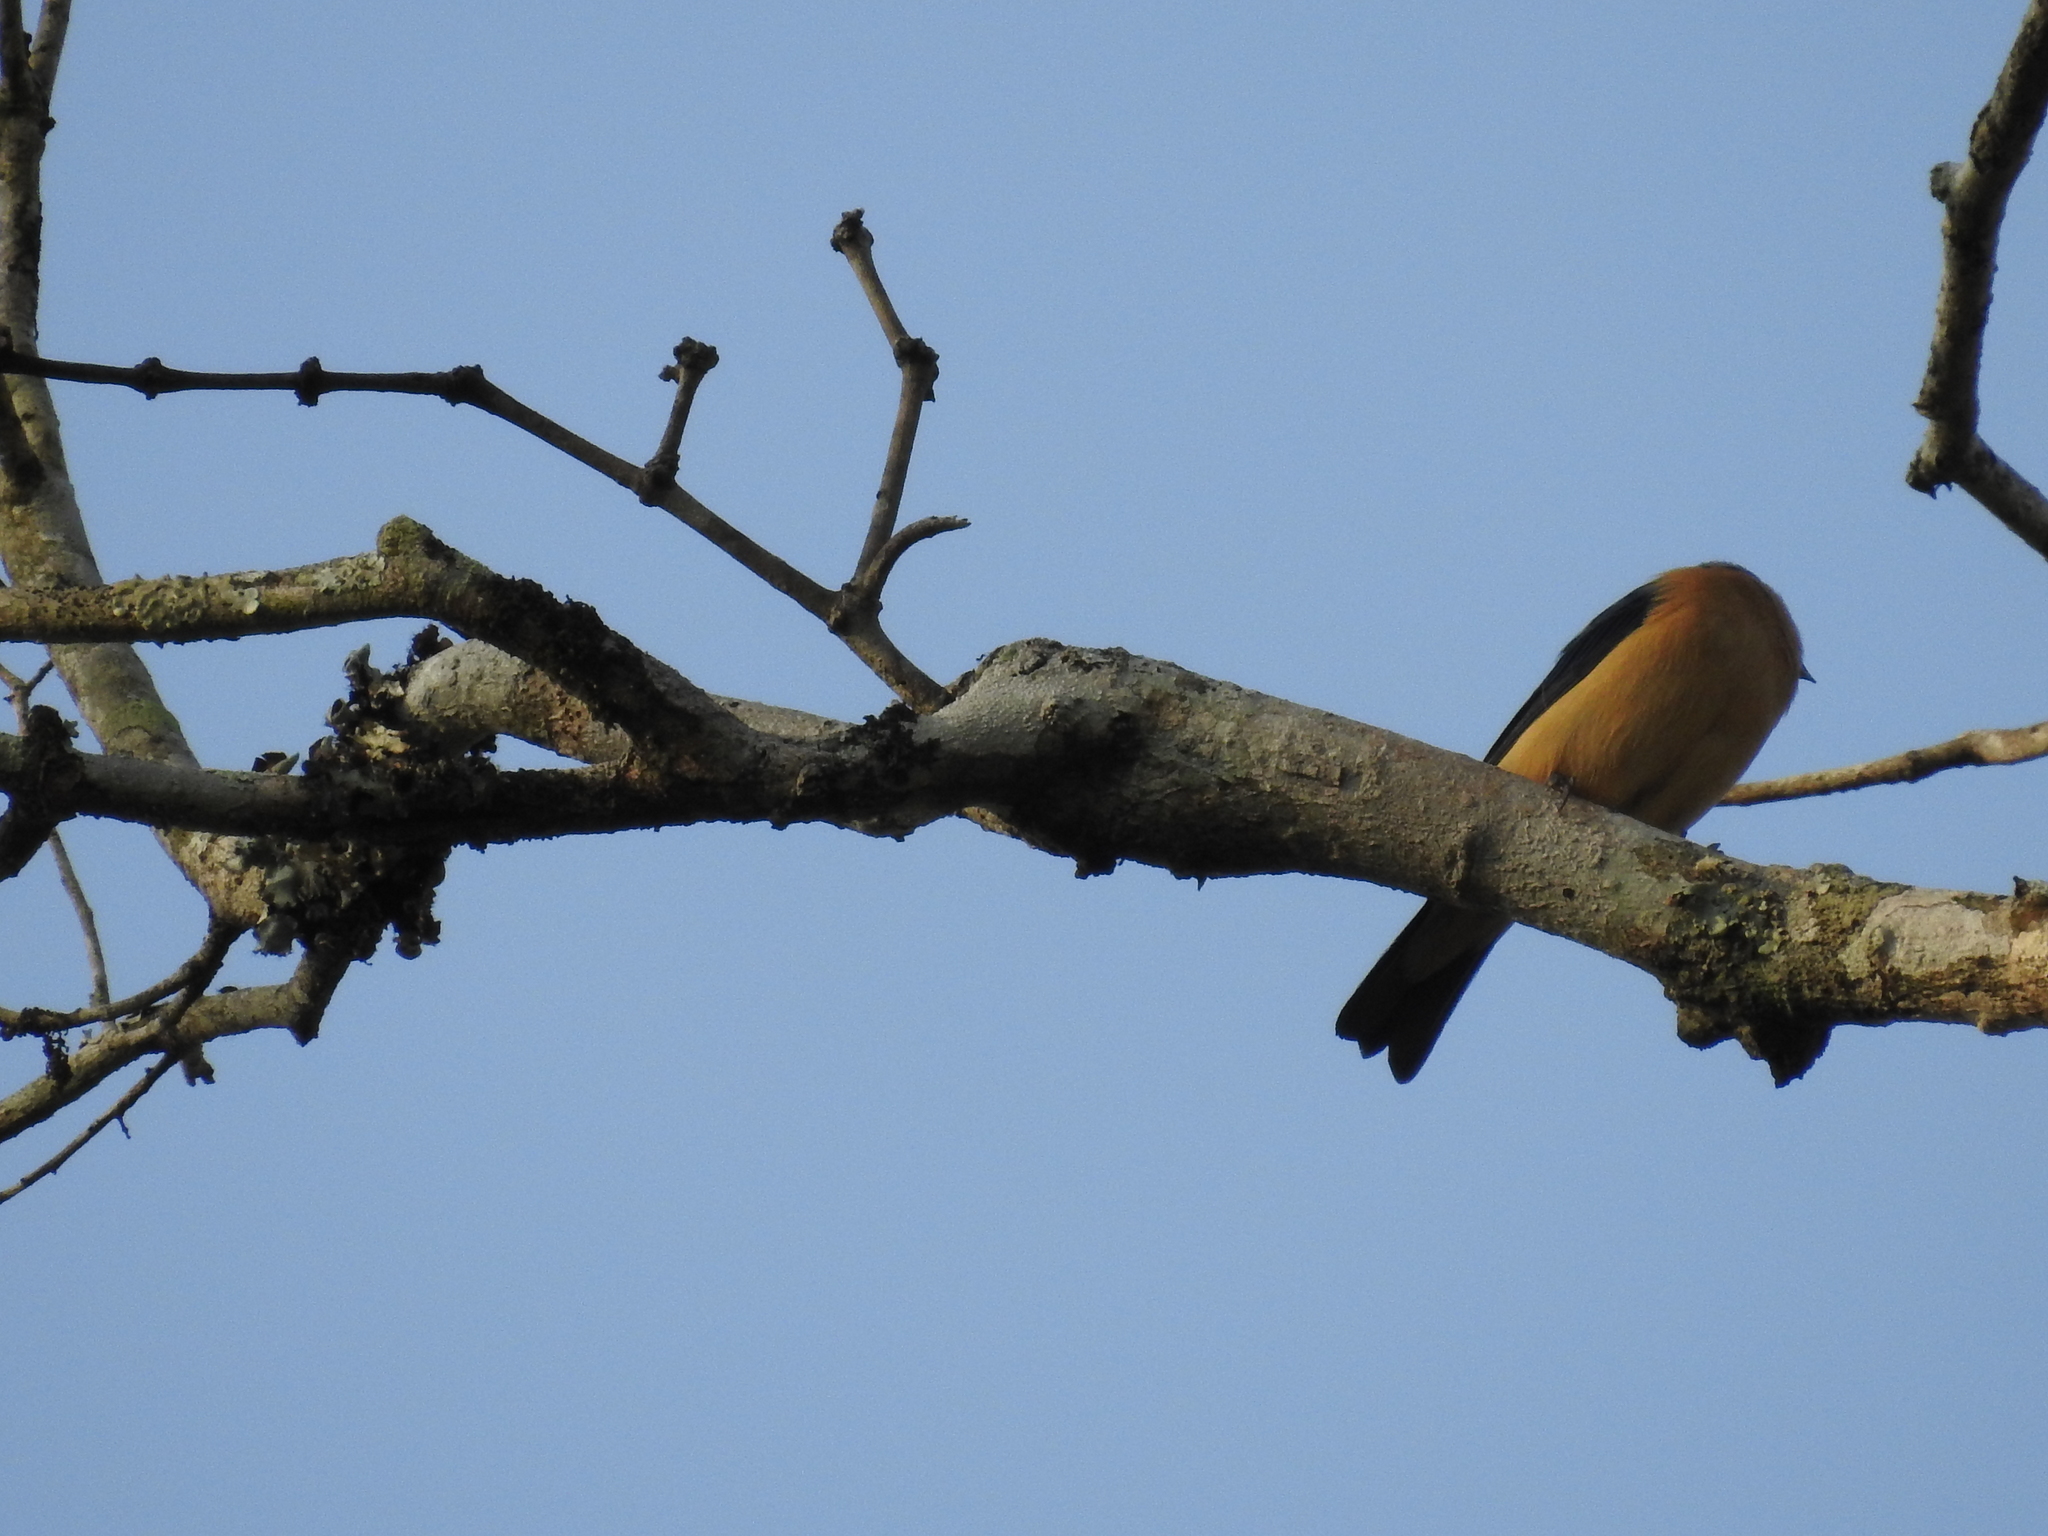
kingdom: Animalia
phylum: Chordata
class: Aves
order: Passeriformes
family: Thraupidae
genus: Pipraeidea
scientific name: Pipraeidea melanonota
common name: Fawn-breasted tanager
